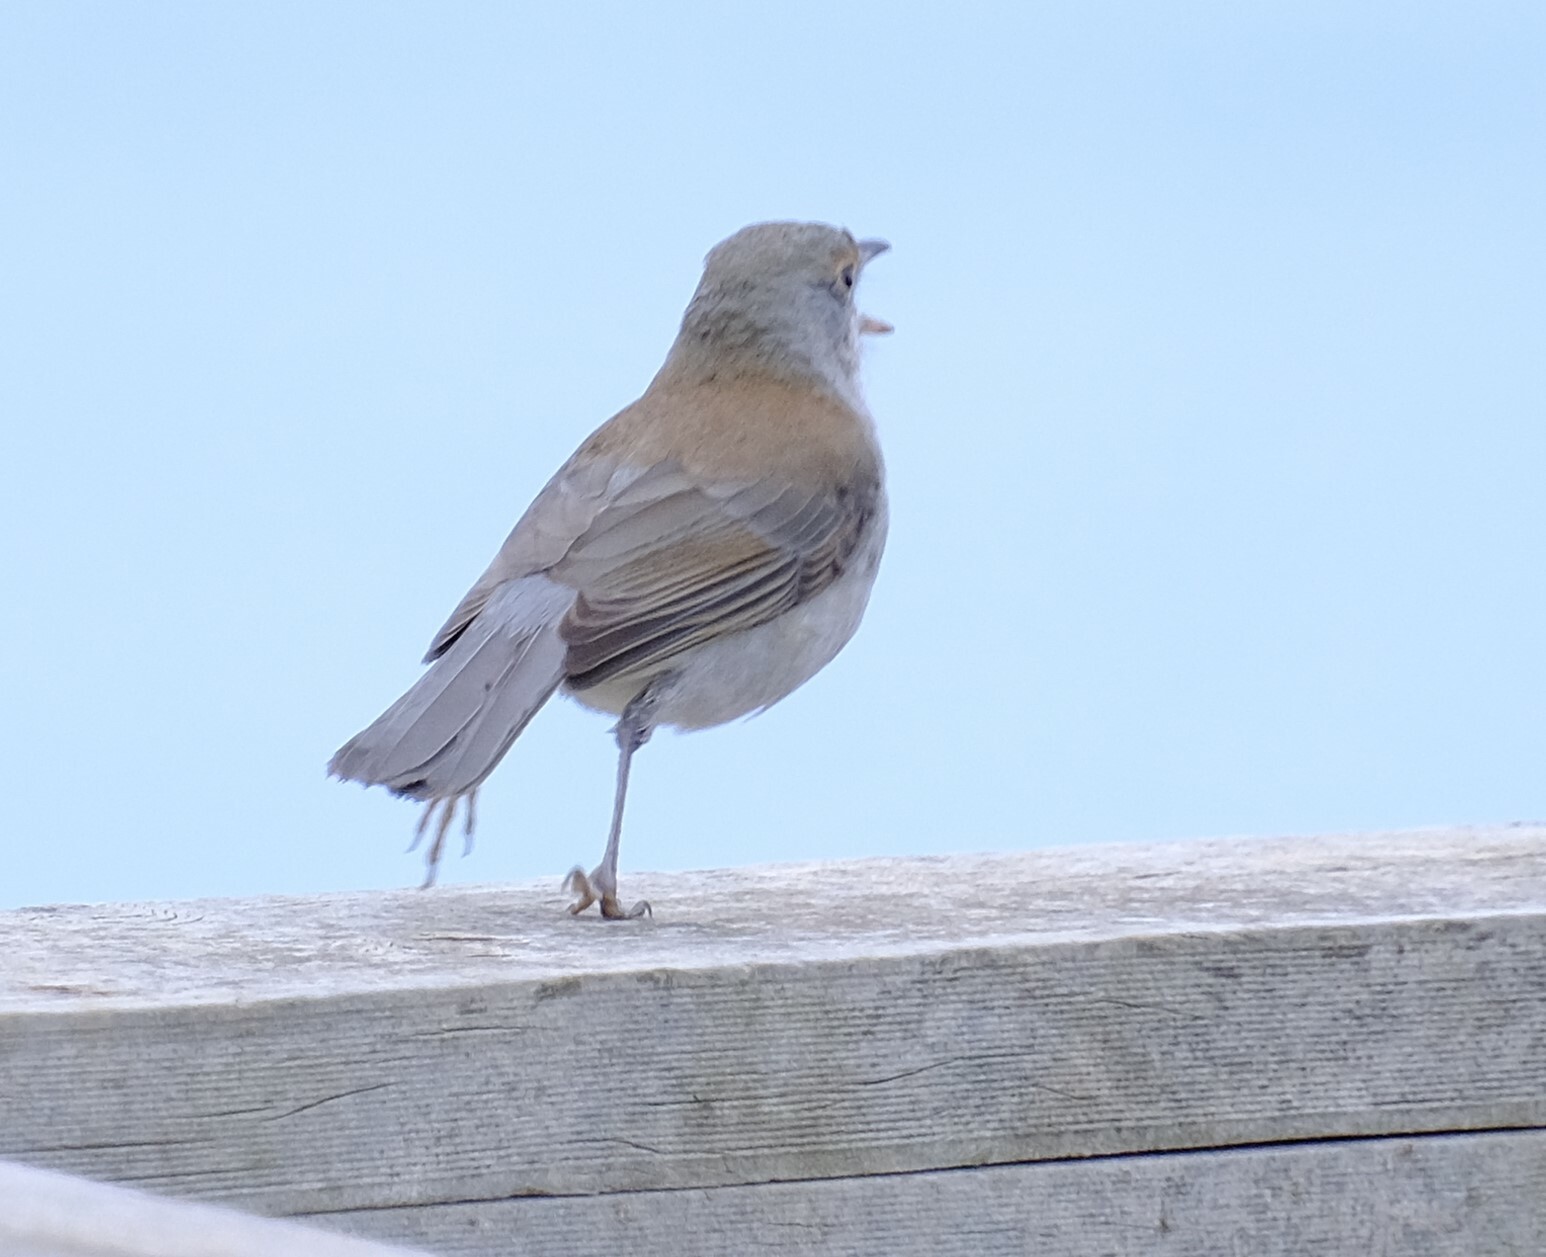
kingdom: Animalia
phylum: Chordata
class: Aves
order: Passeriformes
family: Pachycephalidae
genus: Colluricincla
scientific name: Colluricincla harmonica
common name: Grey shrikethrush
